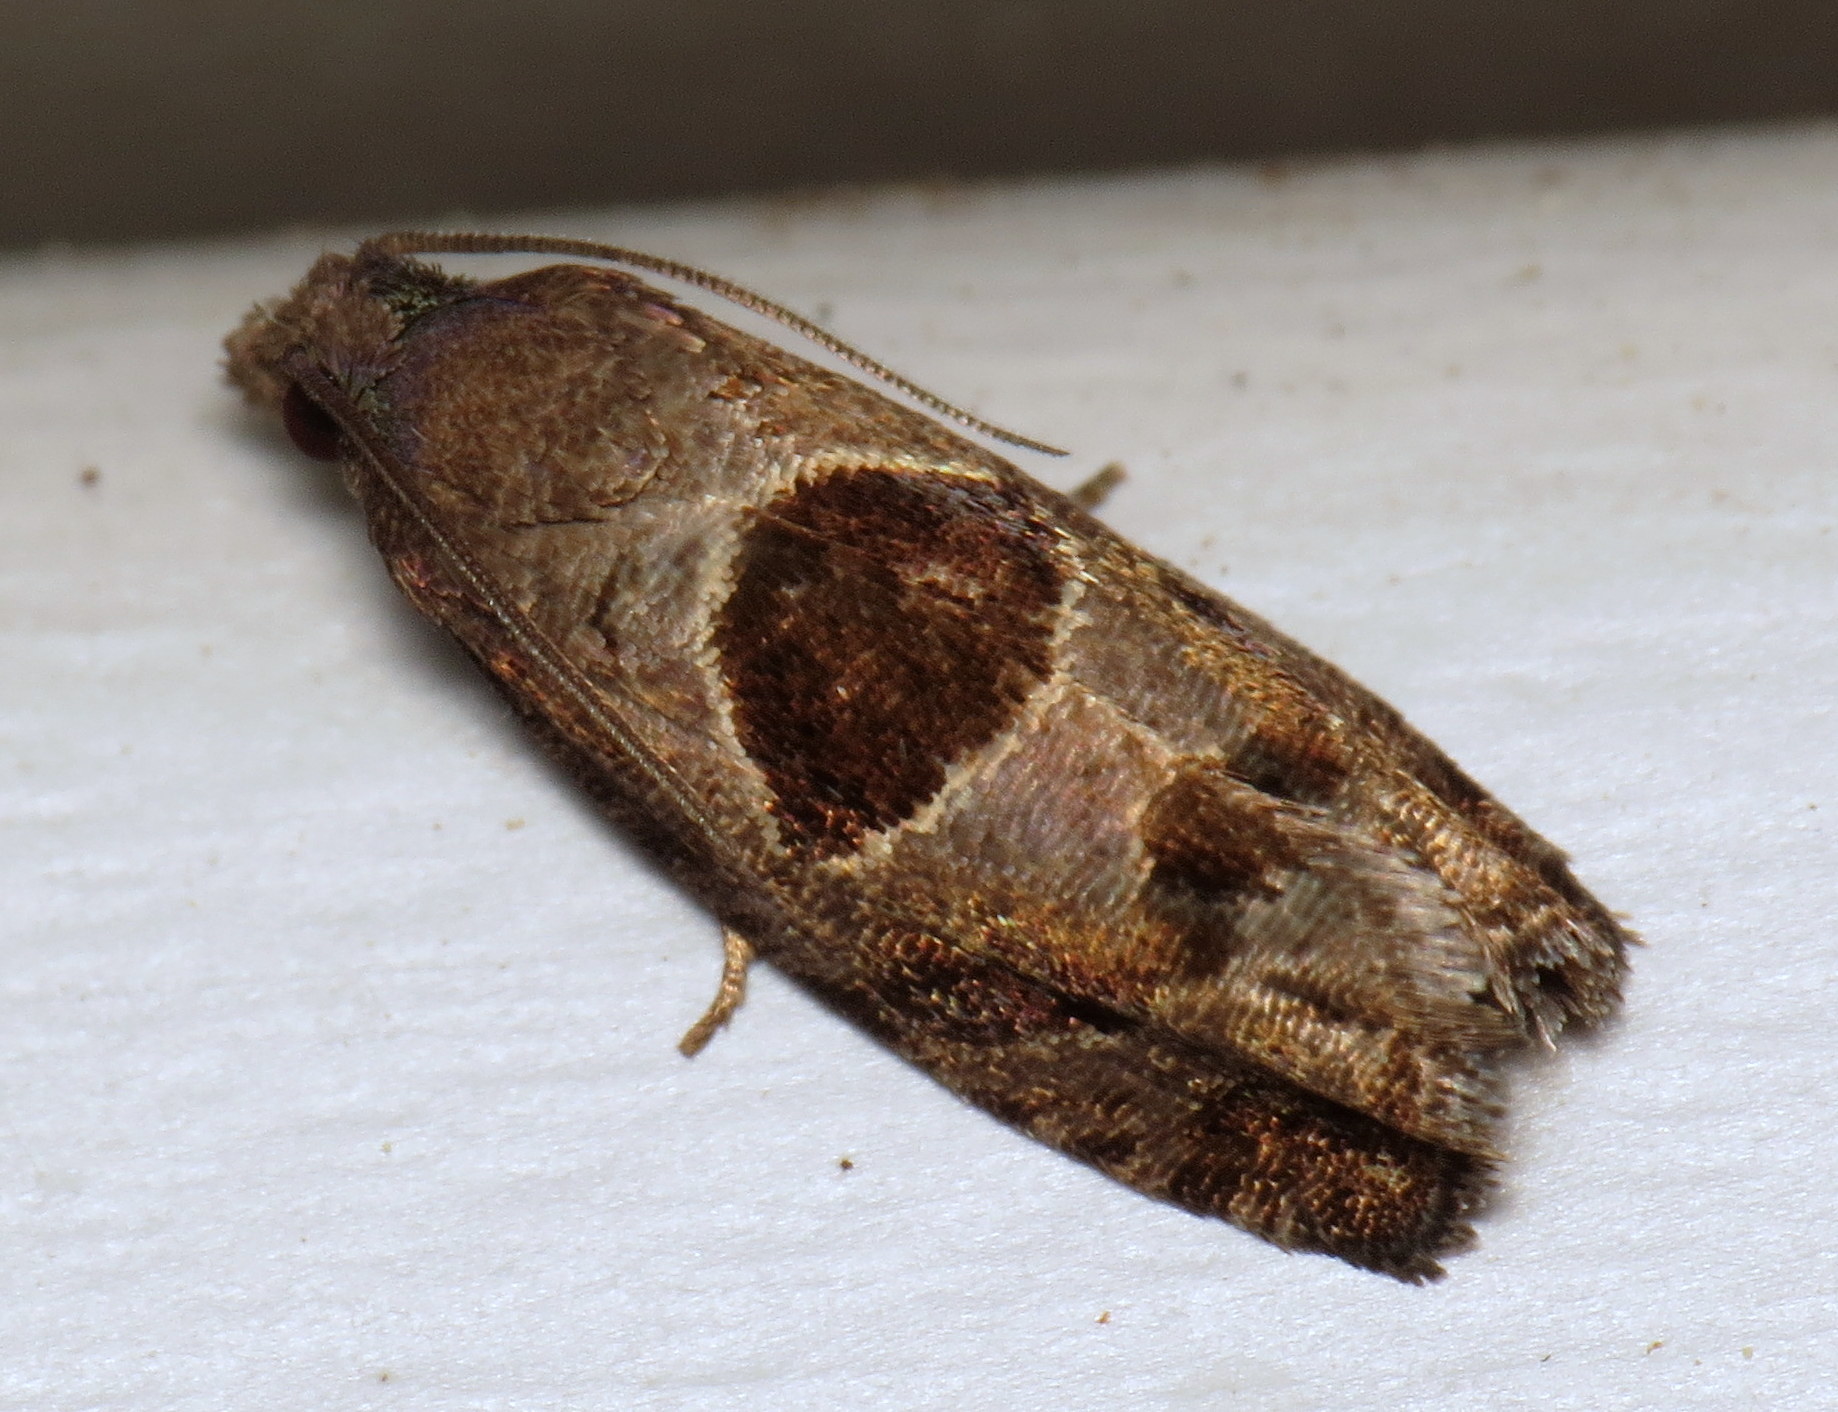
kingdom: Animalia
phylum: Arthropoda
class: Insecta
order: Lepidoptera
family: Tortricidae
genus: Epiblema
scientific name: Epiblema brightonana
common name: Brighton's epiblema moth
